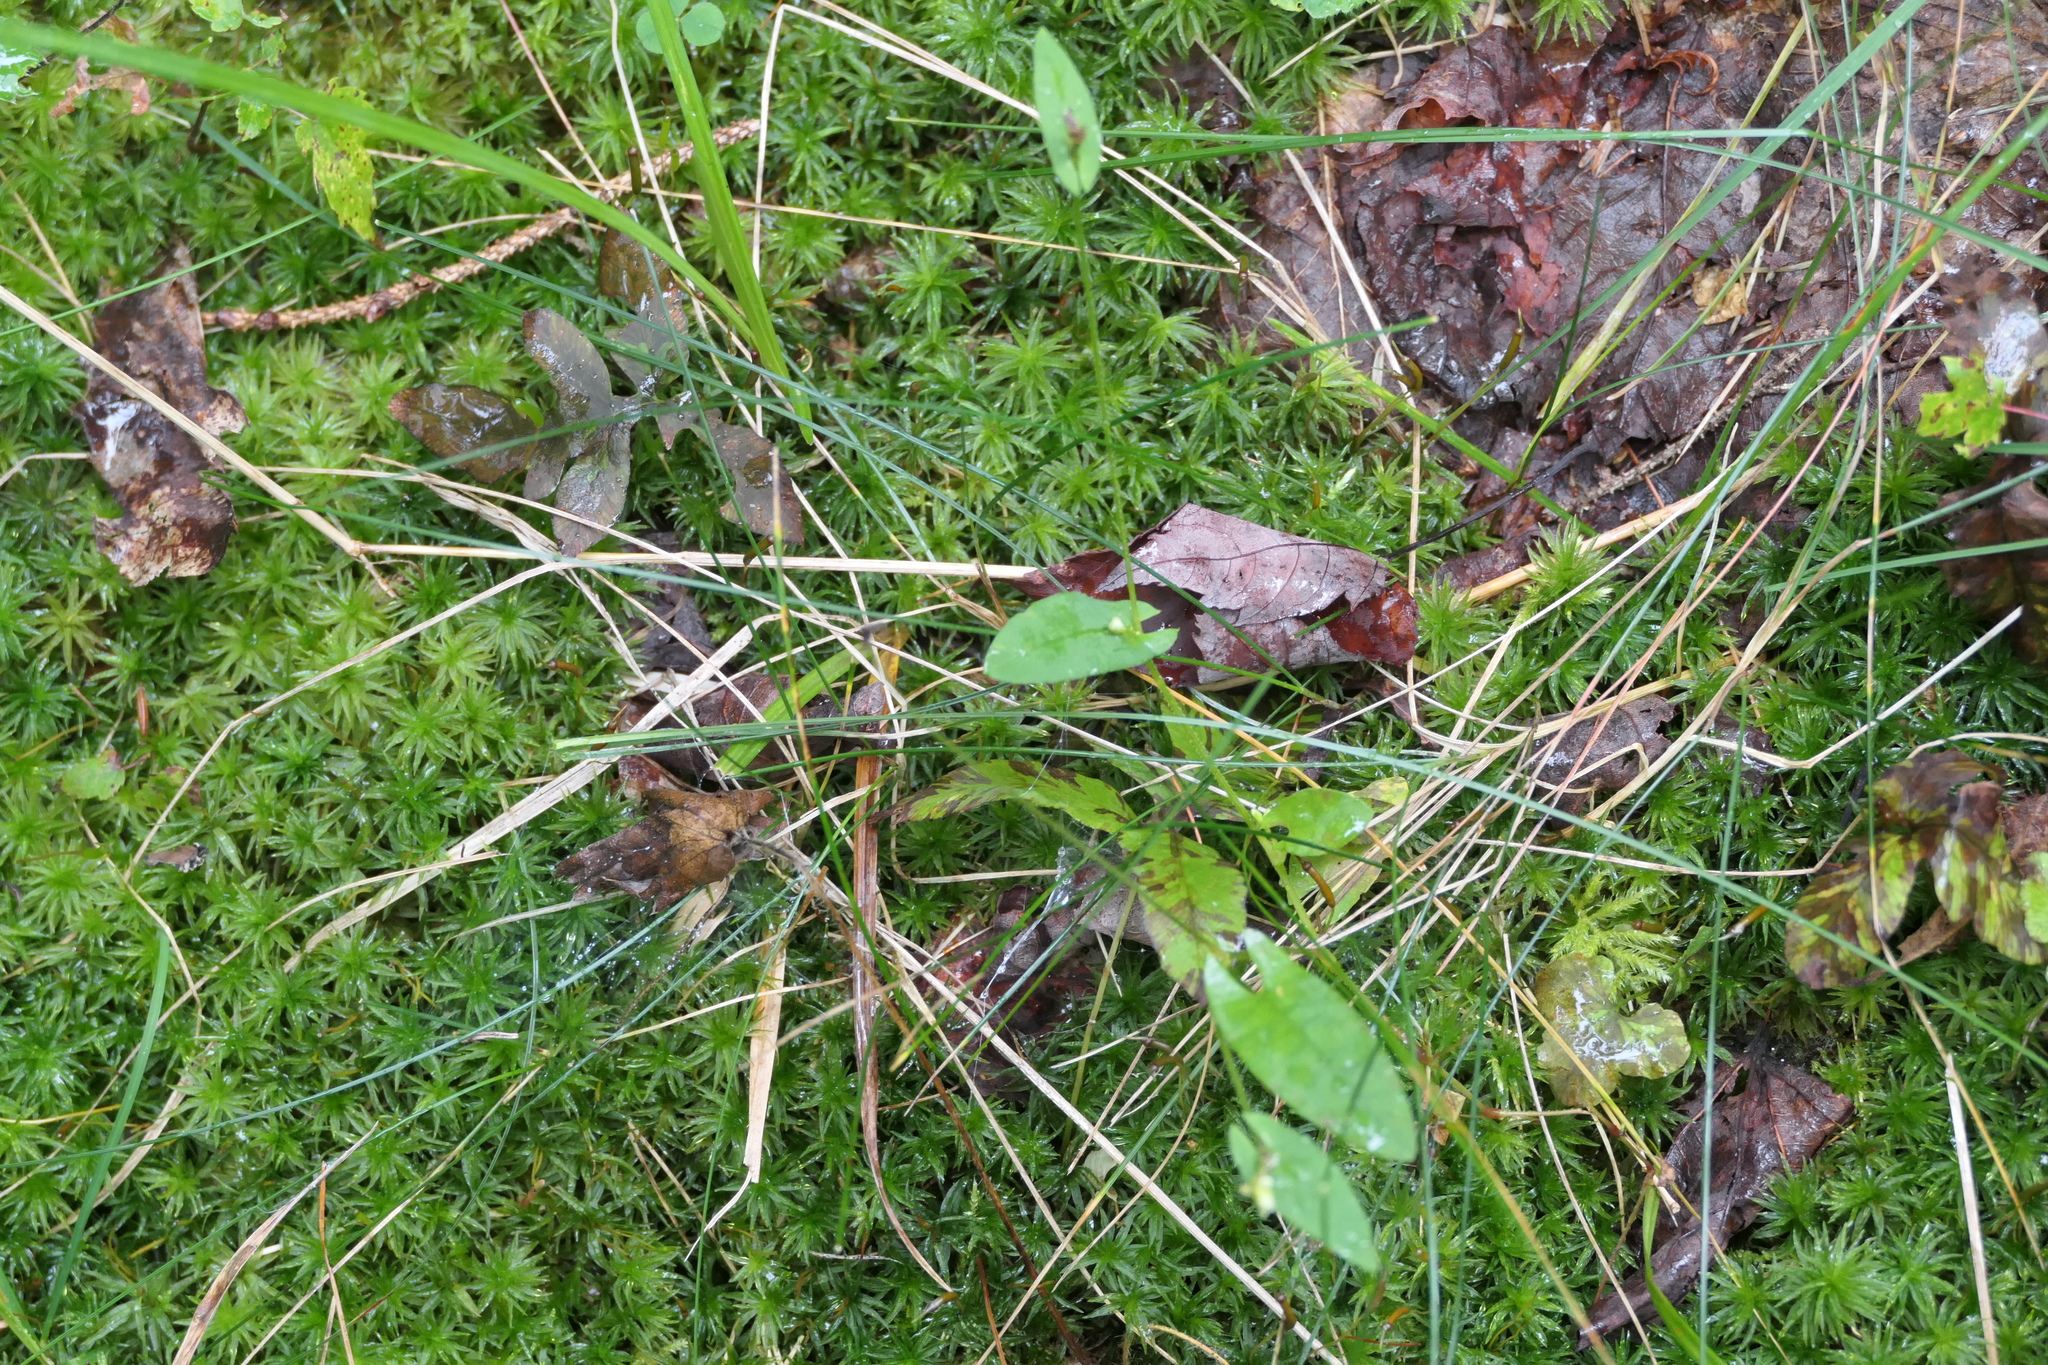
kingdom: Plantae
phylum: Tracheophyta
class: Magnoliopsida
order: Caryophyllales
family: Polygonaceae
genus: Persicaria
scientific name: Persicaria sagittata
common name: American tearthumb
